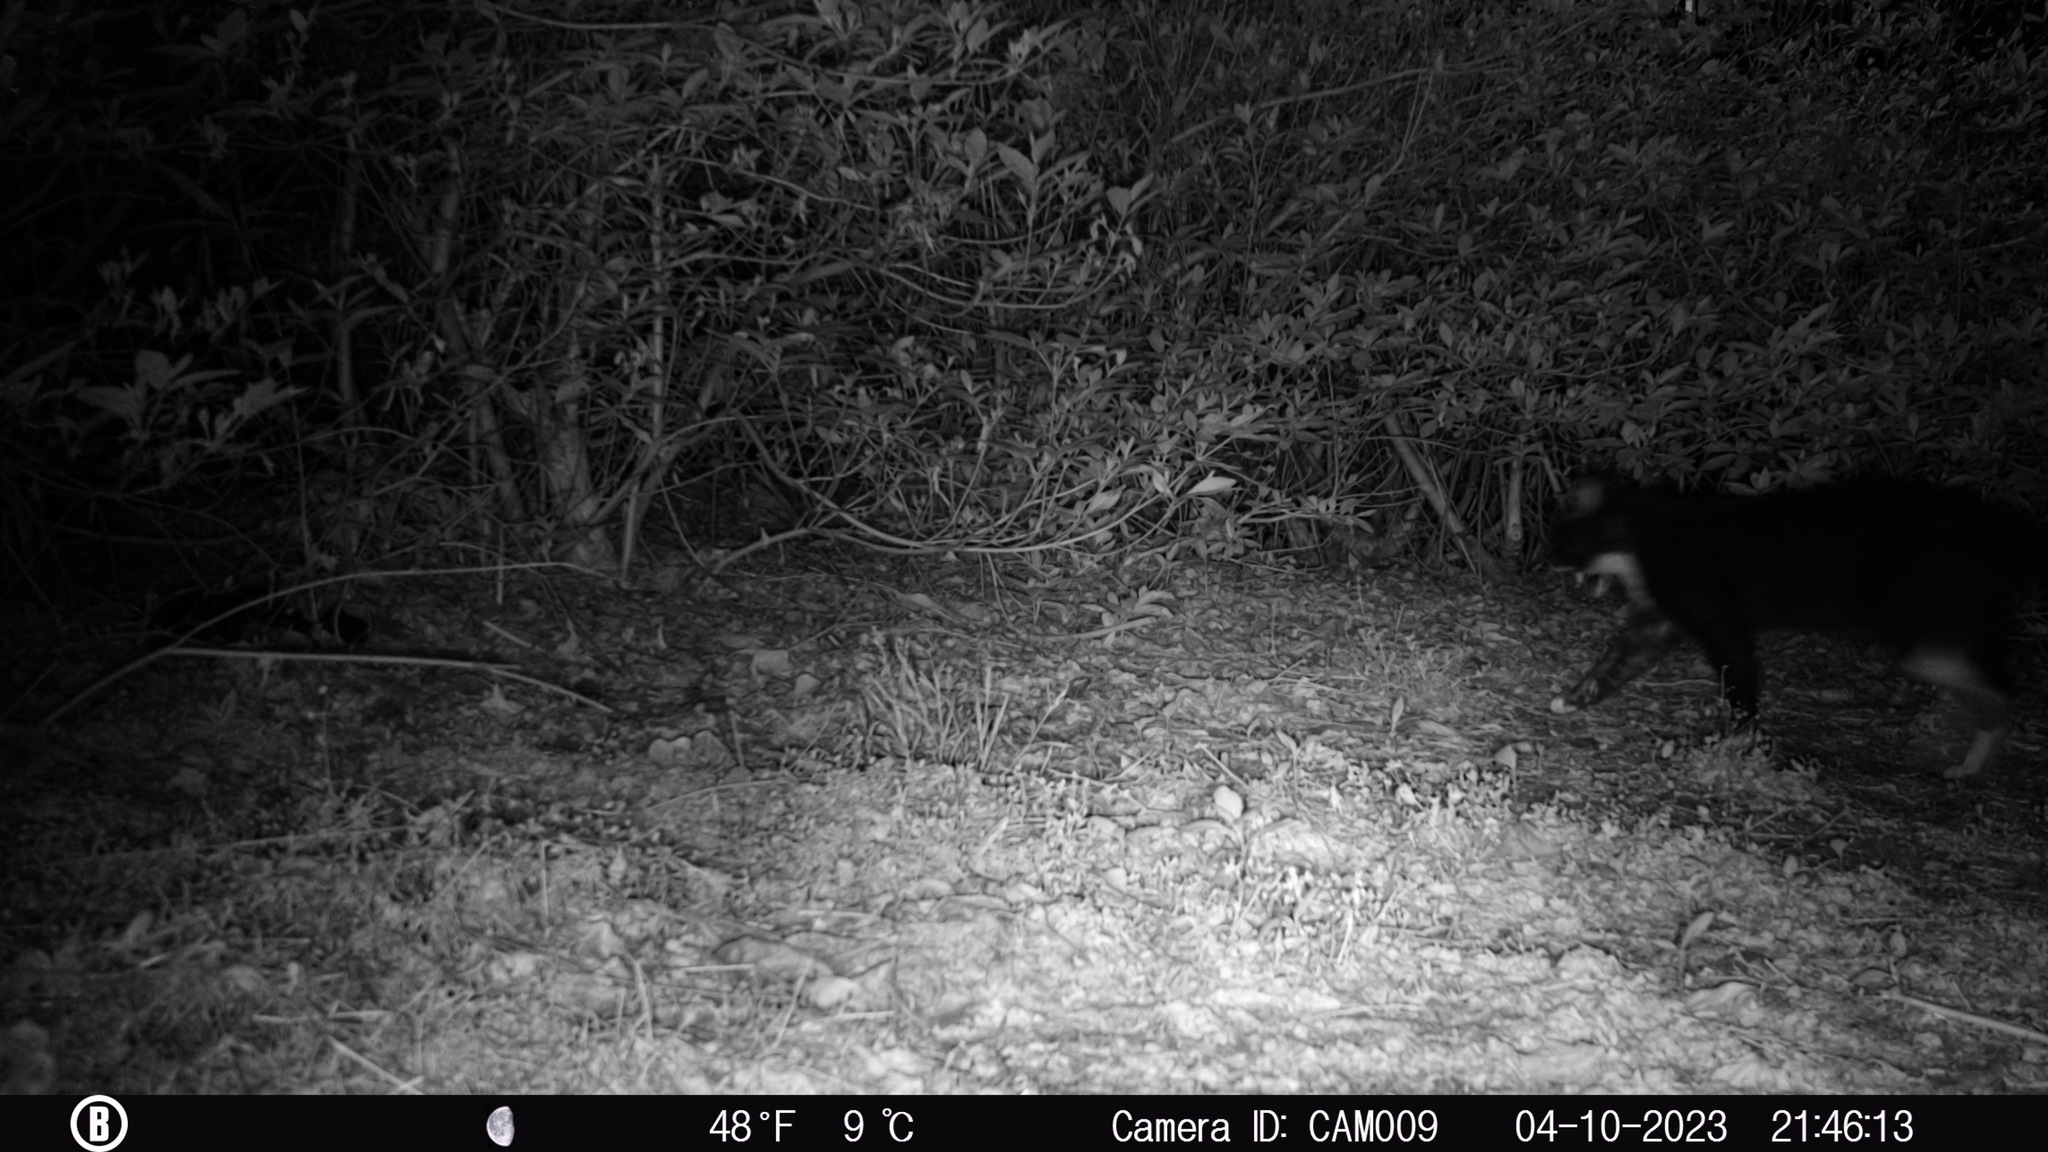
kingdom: Animalia
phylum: Chordata
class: Mammalia
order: Carnivora
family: Felidae
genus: Felis
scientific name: Felis catus
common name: Domestic cat
